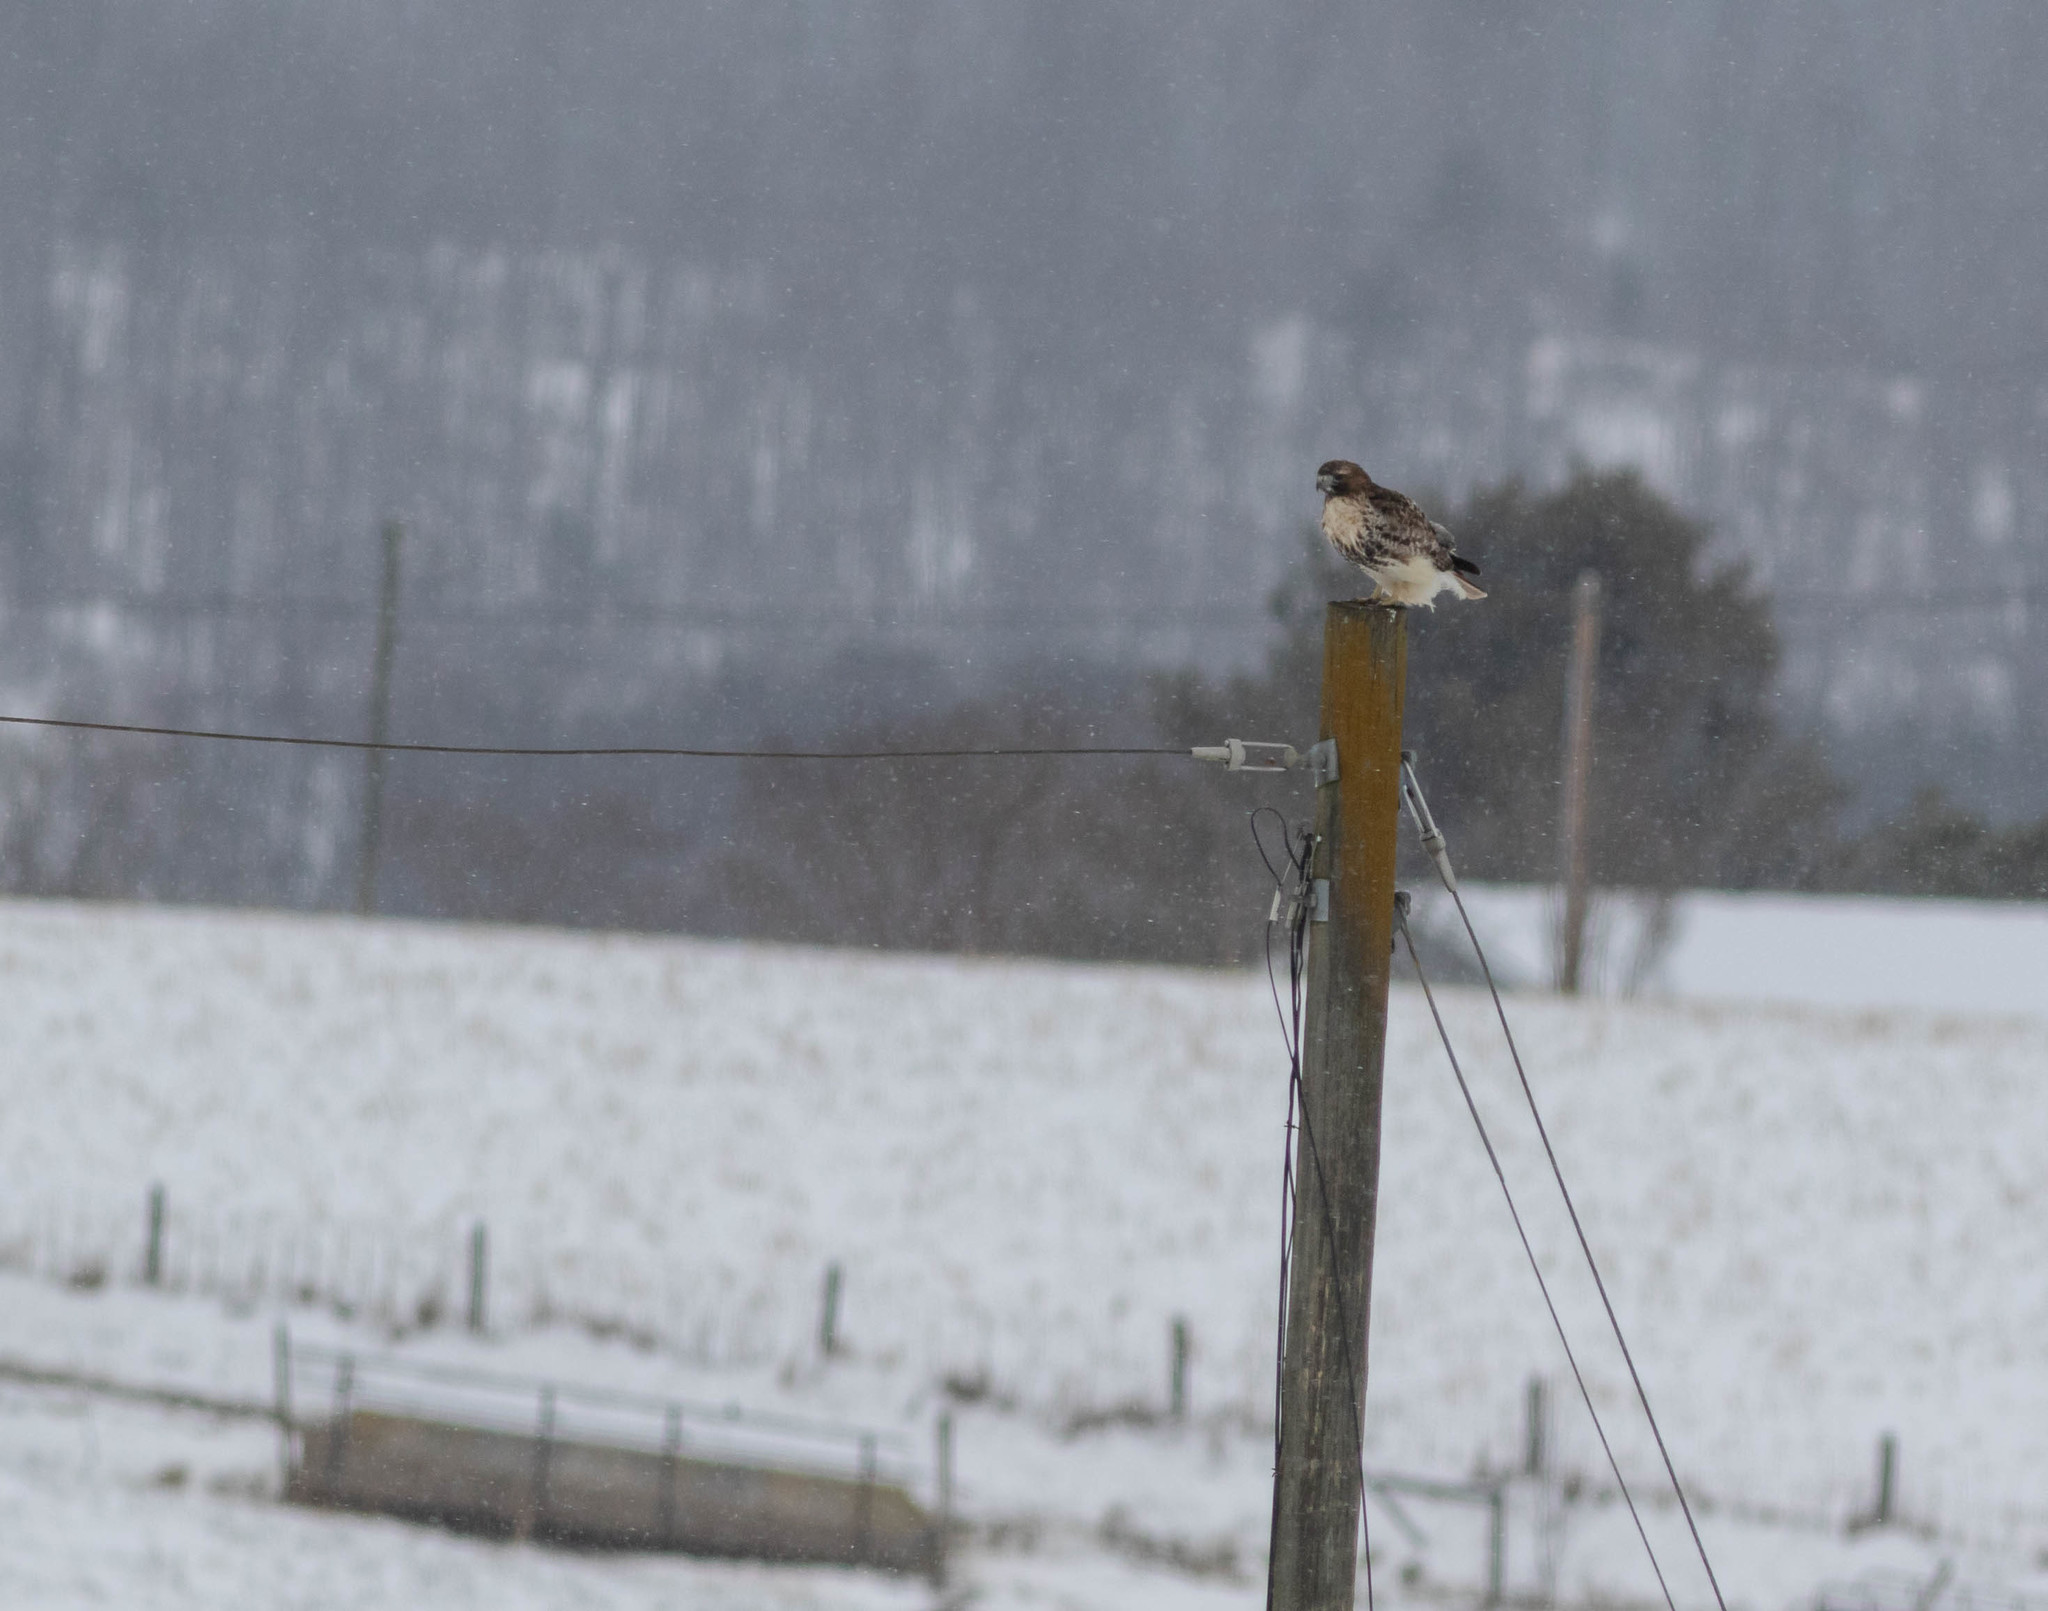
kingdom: Animalia
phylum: Chordata
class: Aves
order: Accipitriformes
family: Accipitridae
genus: Buteo
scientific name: Buteo jamaicensis
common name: Red-tailed hawk
